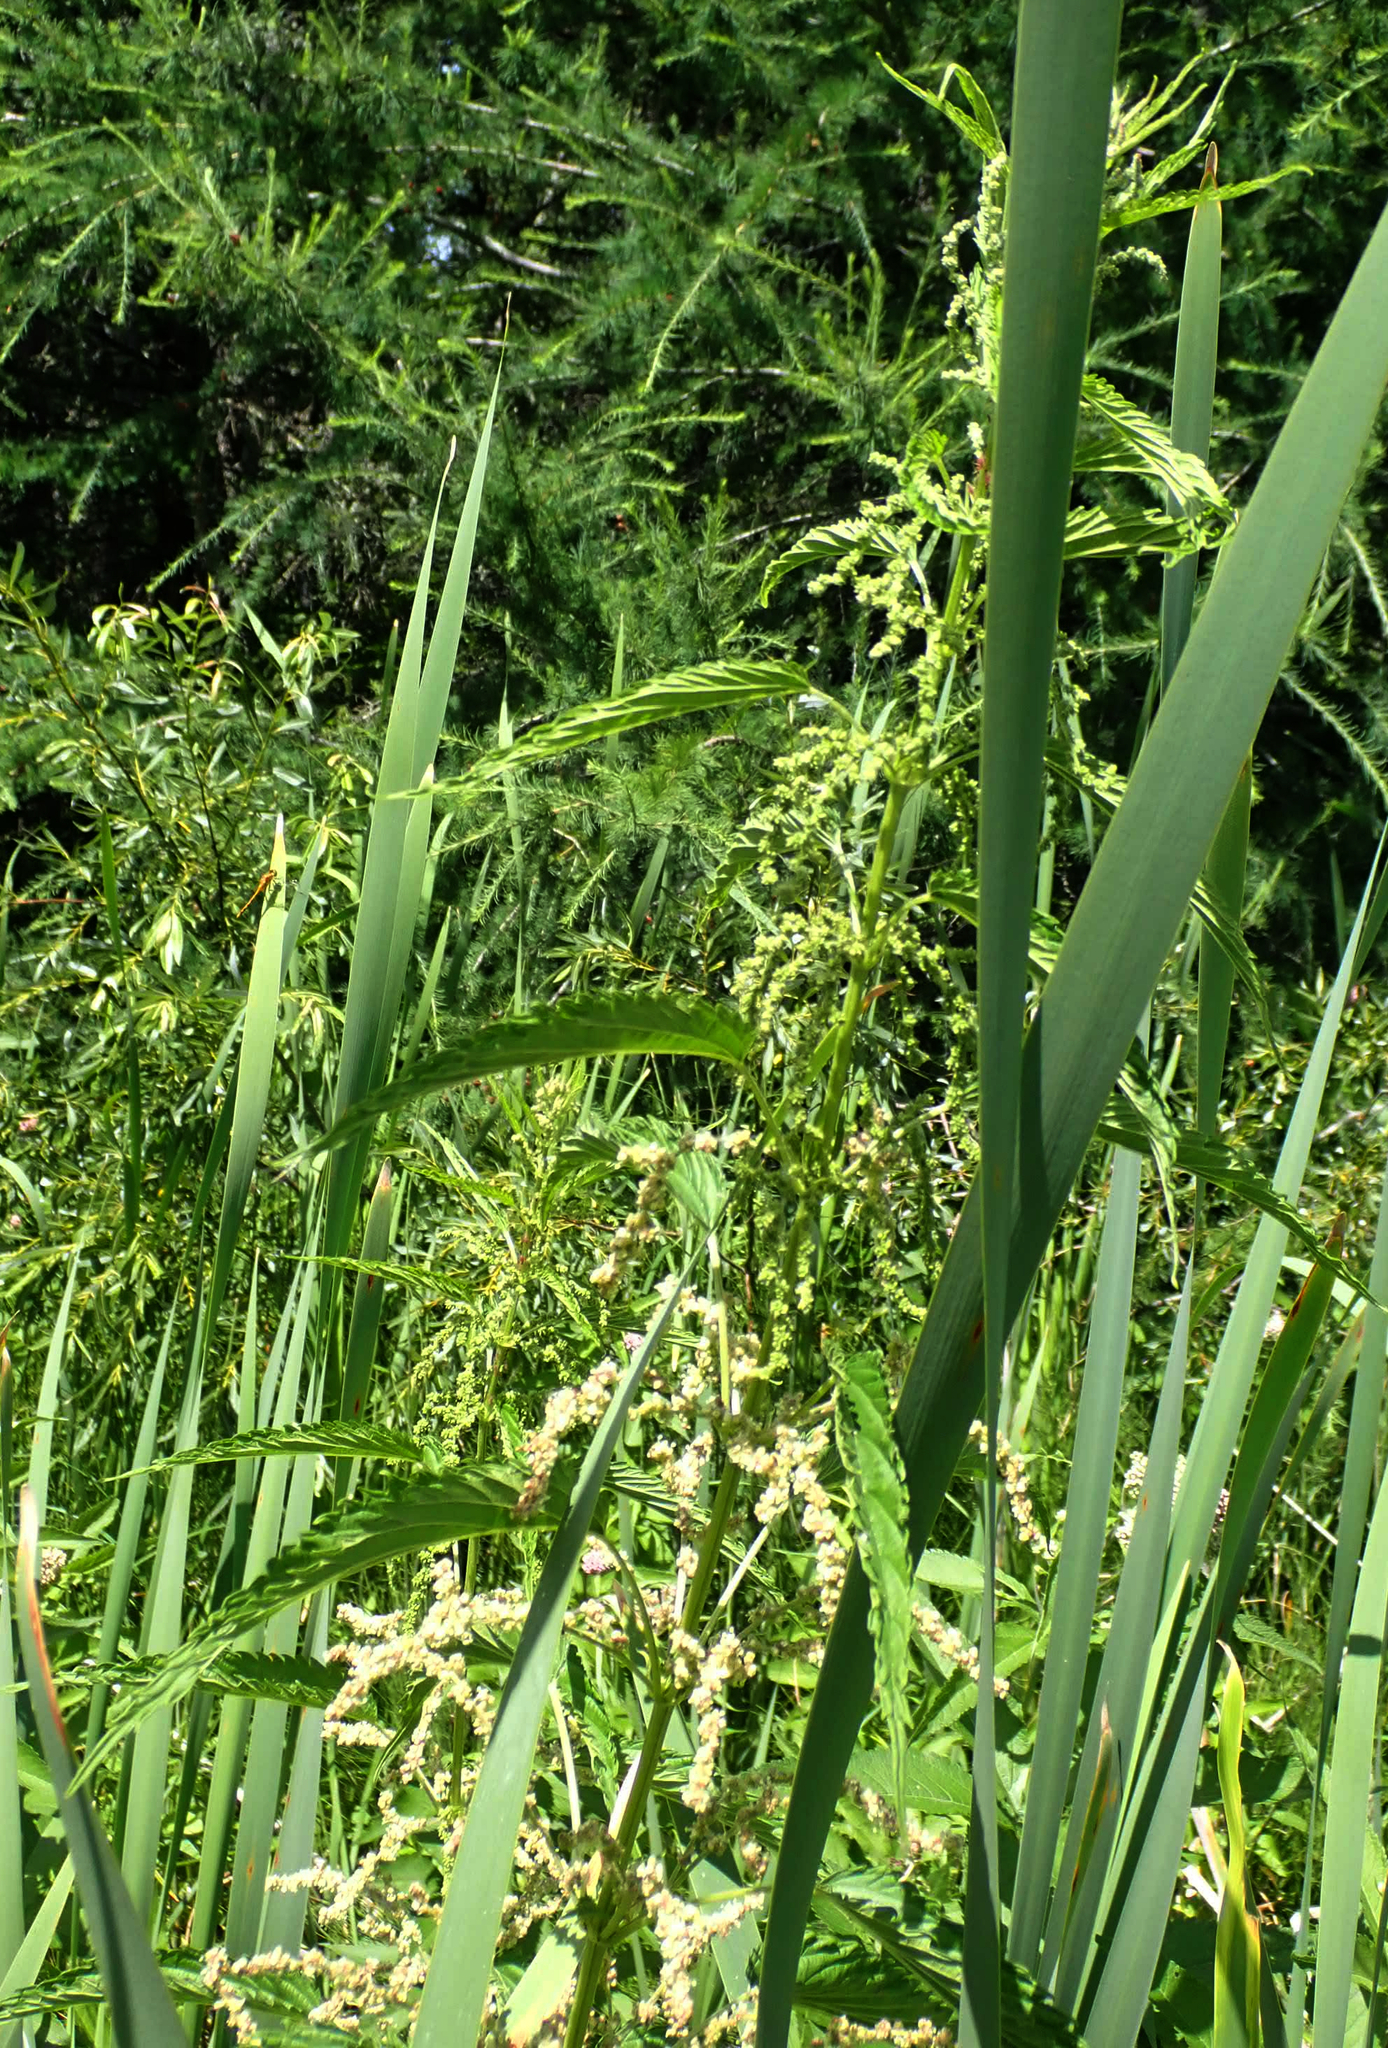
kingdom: Plantae
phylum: Tracheophyta
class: Magnoliopsida
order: Rosales
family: Urticaceae
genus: Urtica
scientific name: Urtica gracilis
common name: Slender stinging nettle
